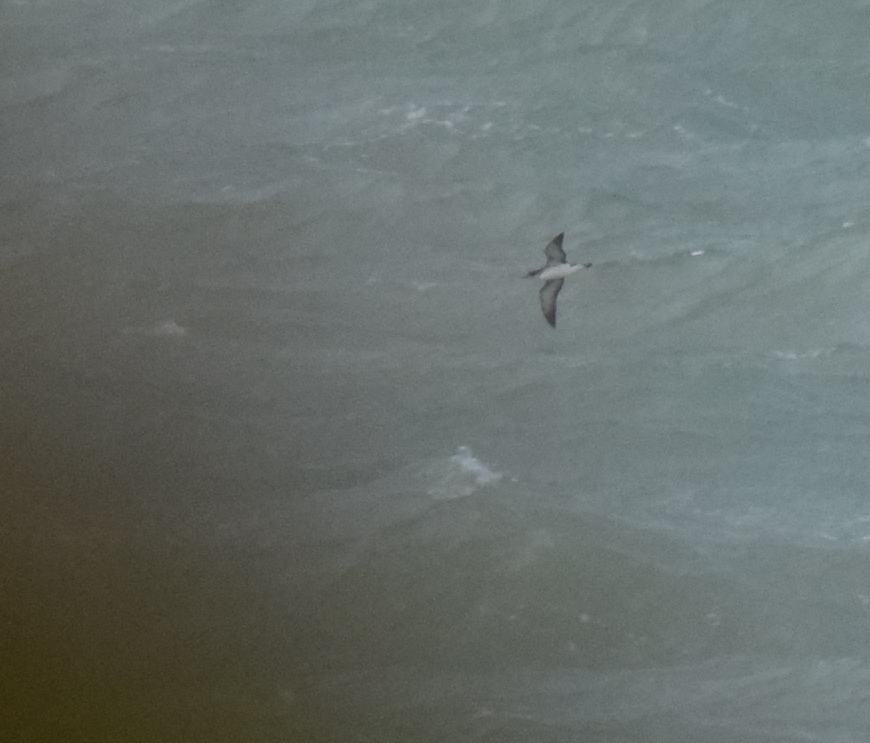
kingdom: Animalia
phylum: Chordata
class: Aves
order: Procellariiformes
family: Procellariidae
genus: Puffinus
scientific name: Puffinus puffinus
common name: Manx shearwater
